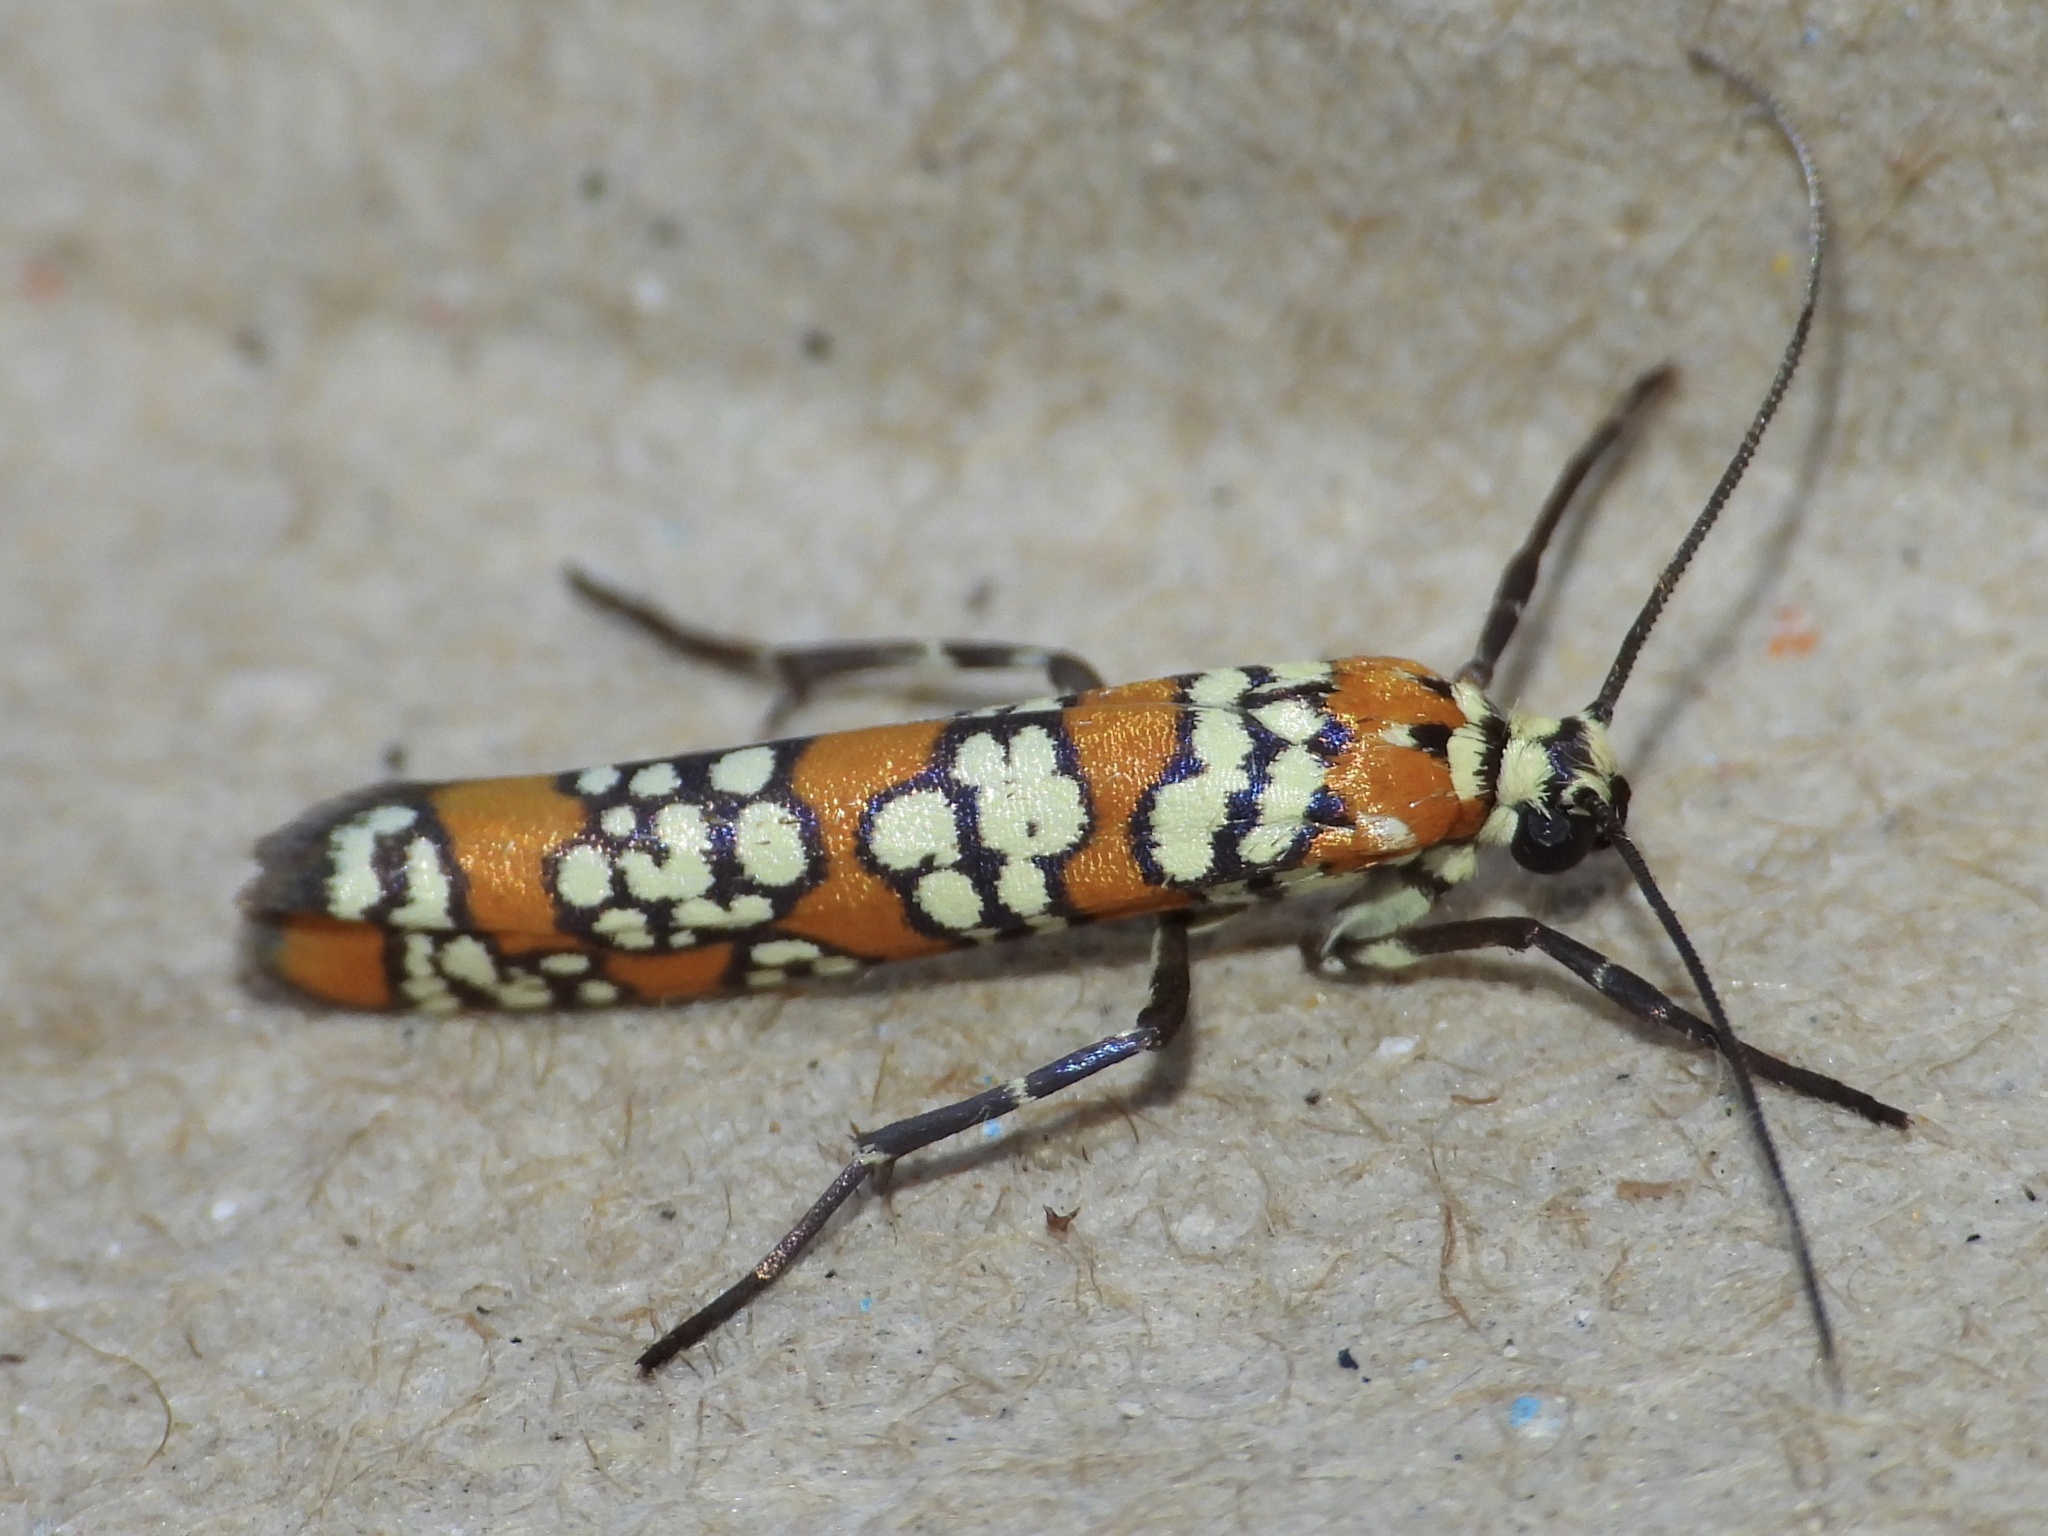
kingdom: Animalia
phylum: Arthropoda
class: Insecta
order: Lepidoptera
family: Attevidae
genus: Atteva
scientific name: Atteva punctella
